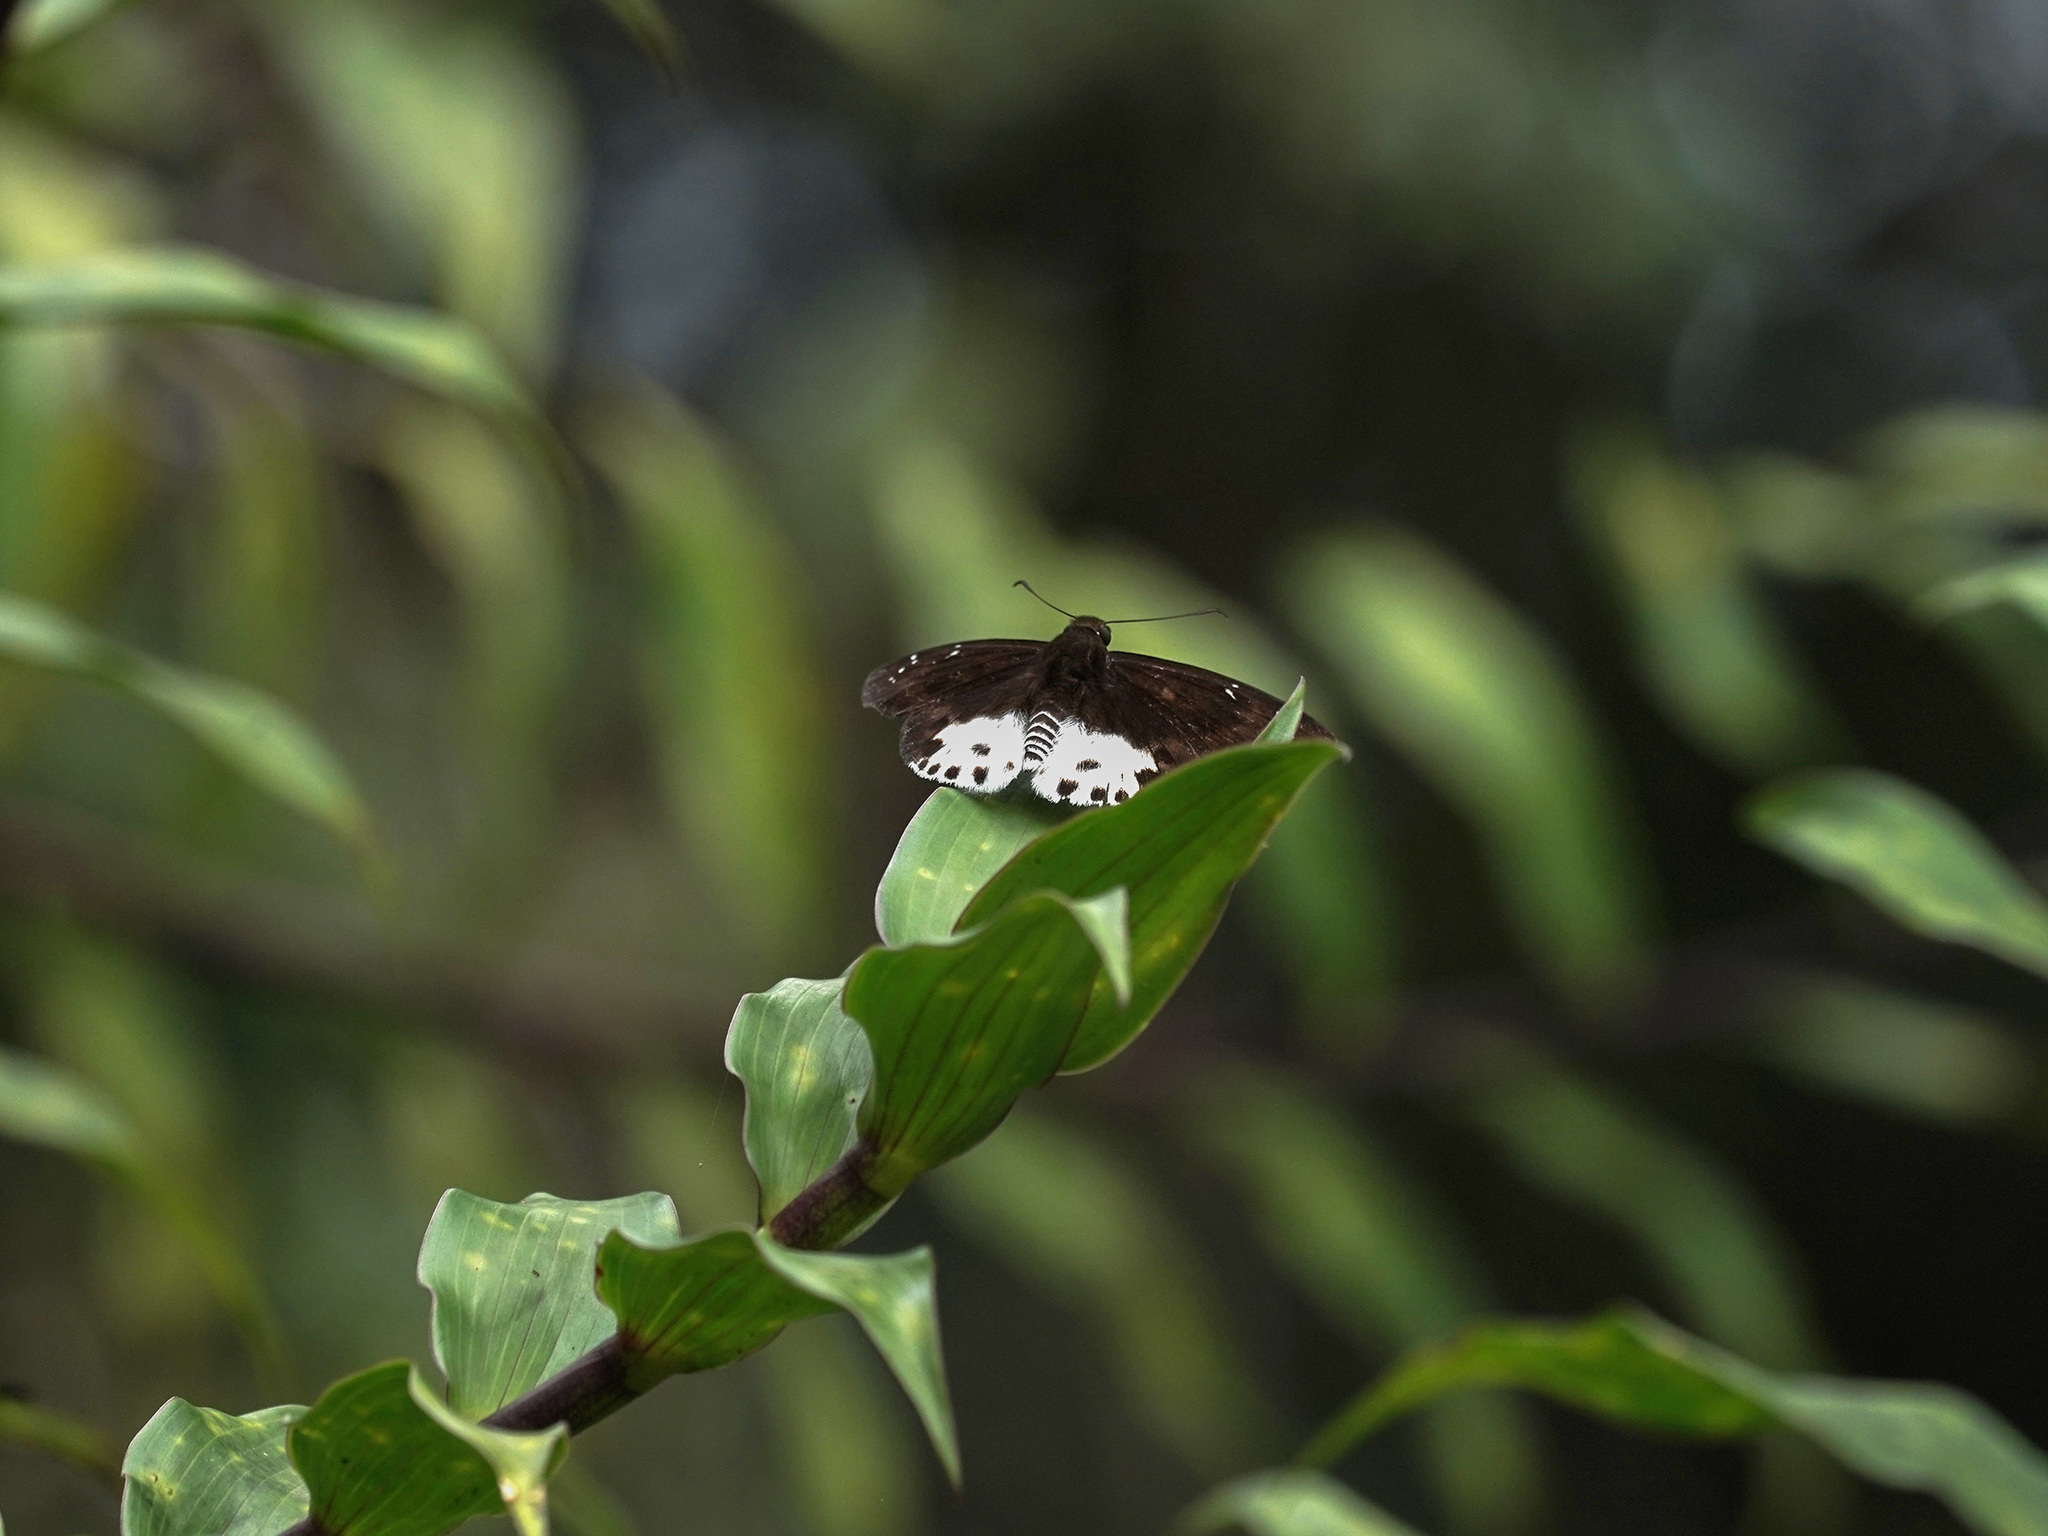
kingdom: Animalia
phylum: Arthropoda
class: Insecta
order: Lepidoptera
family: Hesperiidae
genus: Tagiades
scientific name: Tagiades cohaerens
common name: White-striped snow flat
